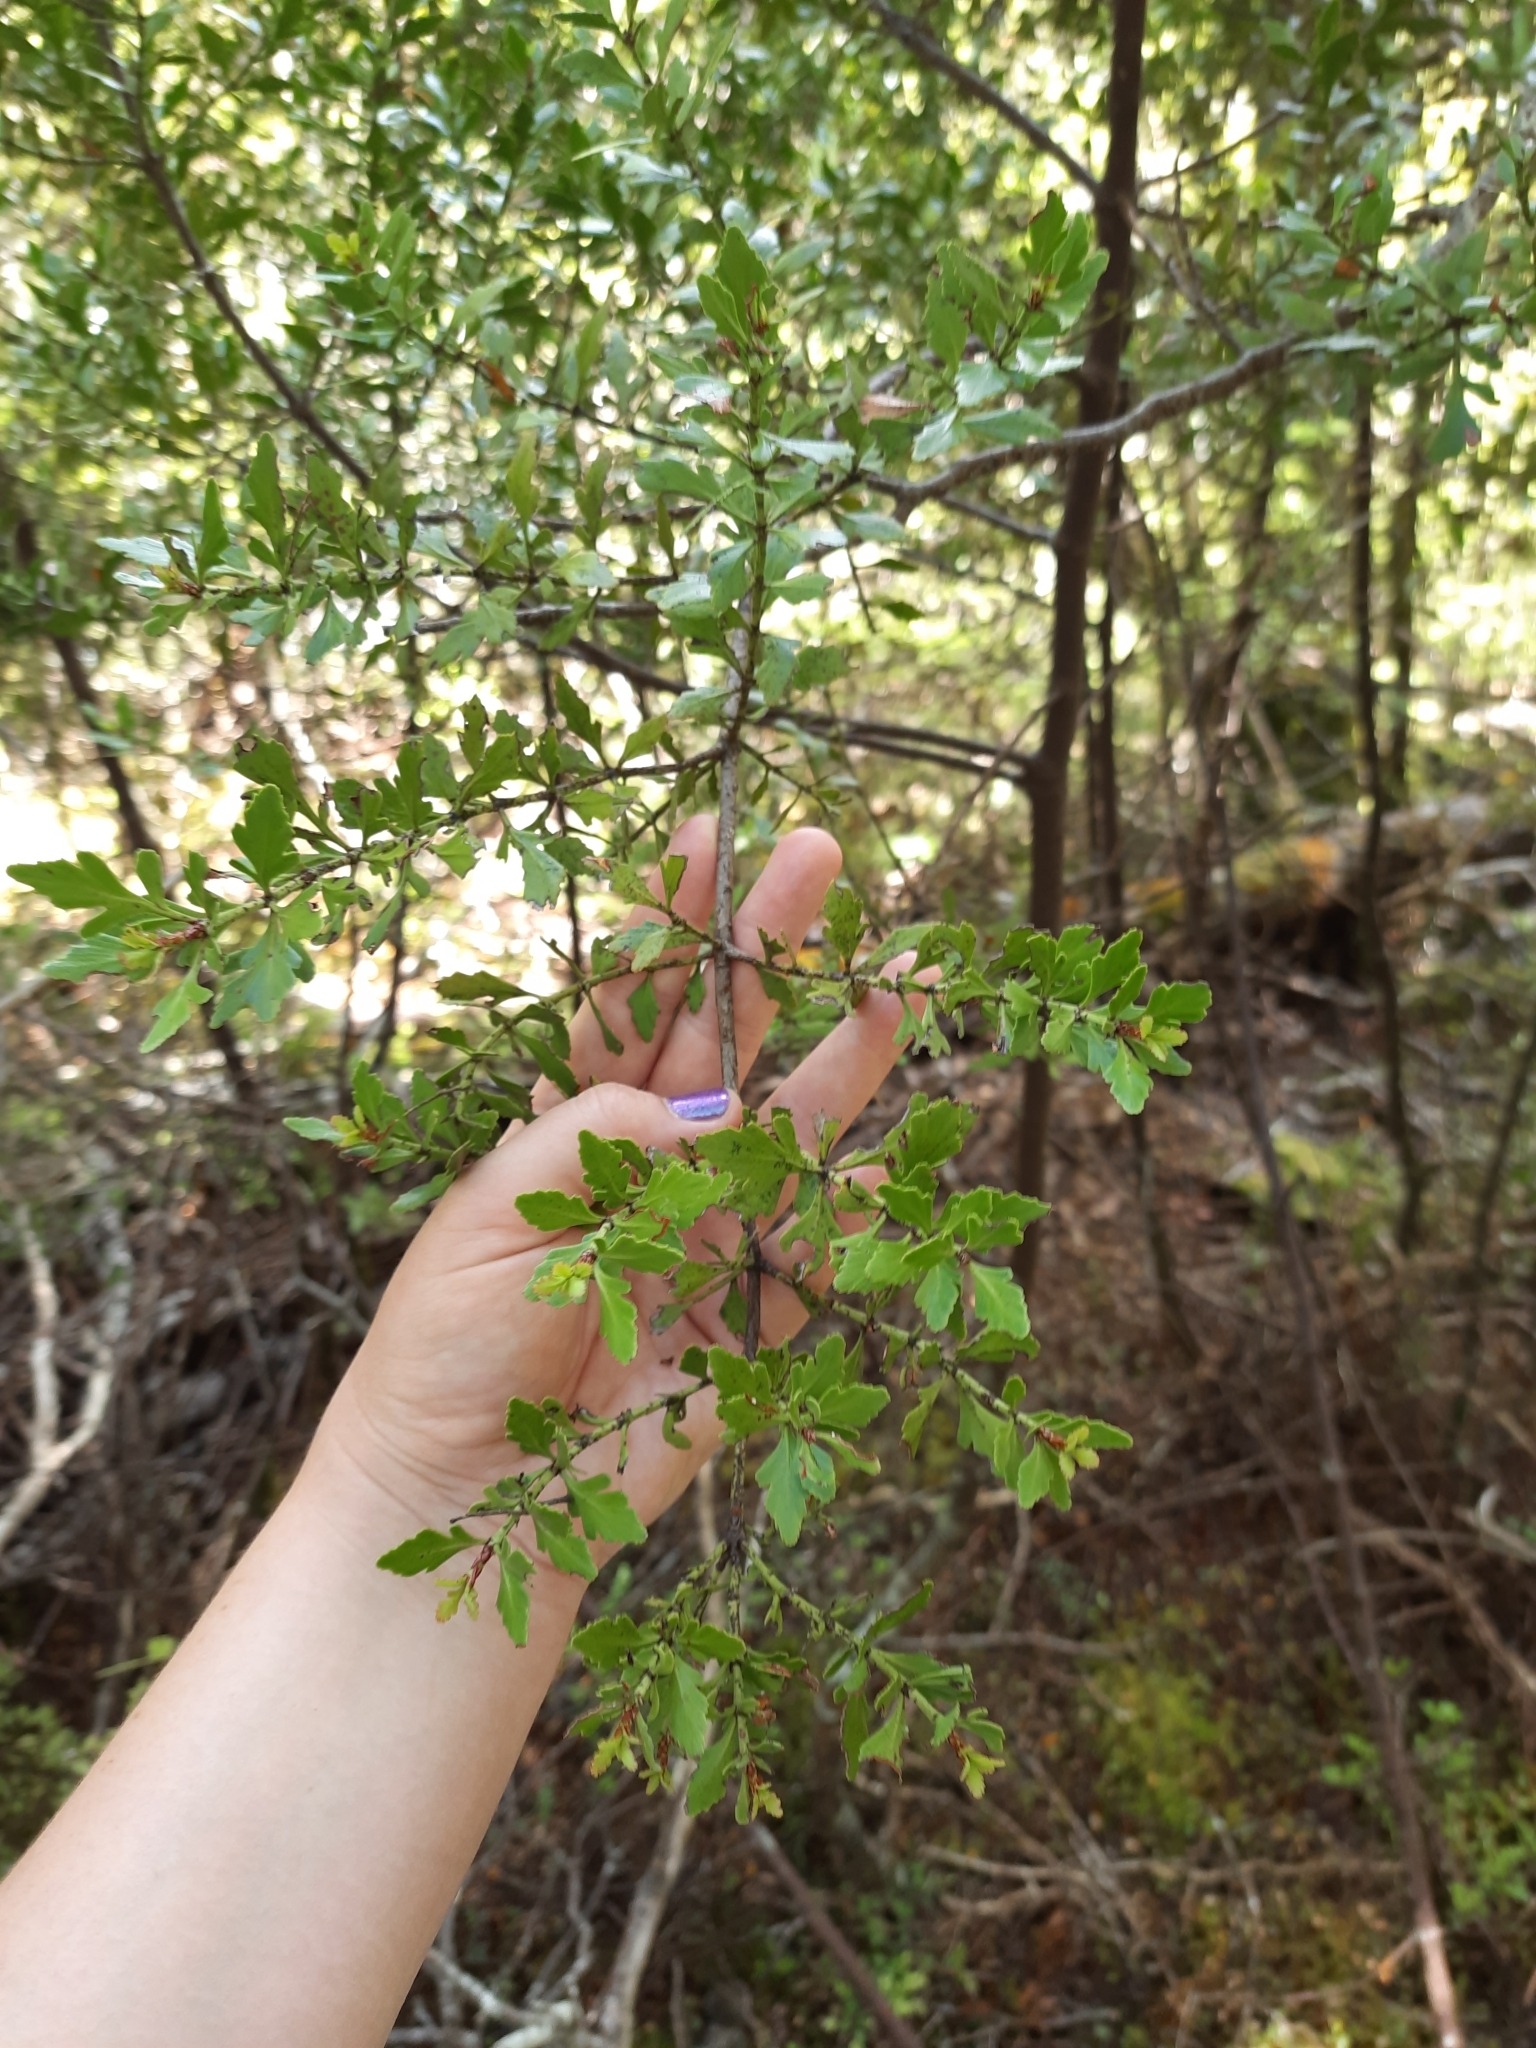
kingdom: Plantae
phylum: Tracheophyta
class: Pinopsida
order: Pinales
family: Phyllocladaceae
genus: Phyllocladus
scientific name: Phyllocladus trichomanoides
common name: Celery pine
